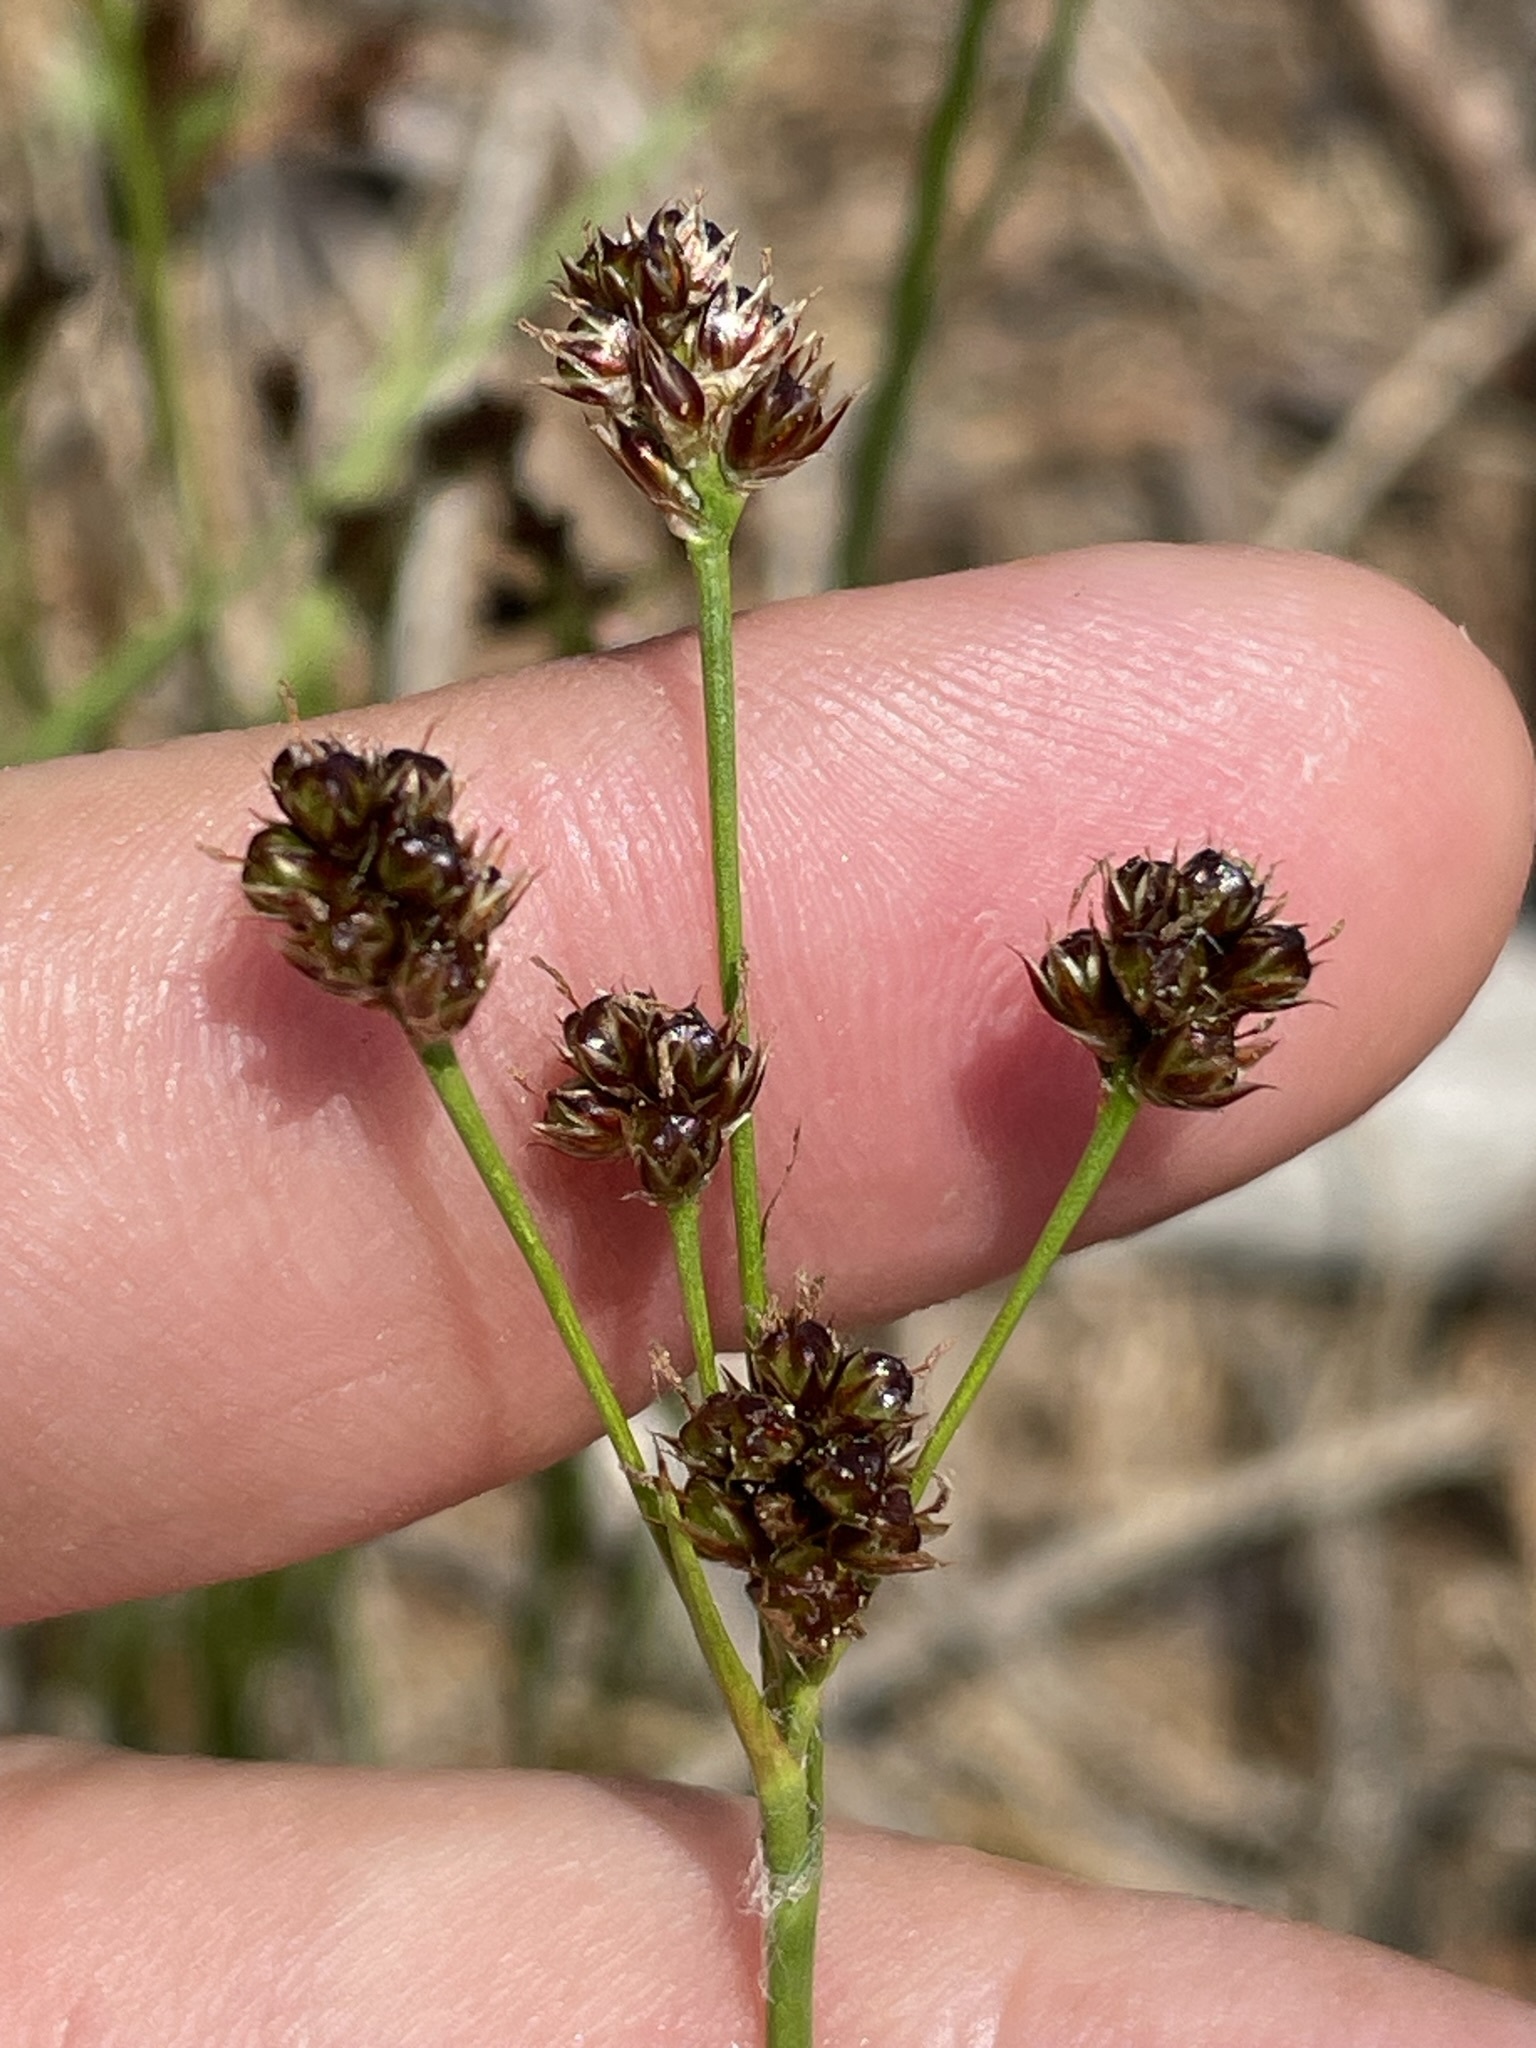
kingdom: Plantae
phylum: Tracheophyta
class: Liliopsida
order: Poales
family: Juncaceae
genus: Luzula
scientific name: Luzula multiflora
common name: Heath wood-rush
